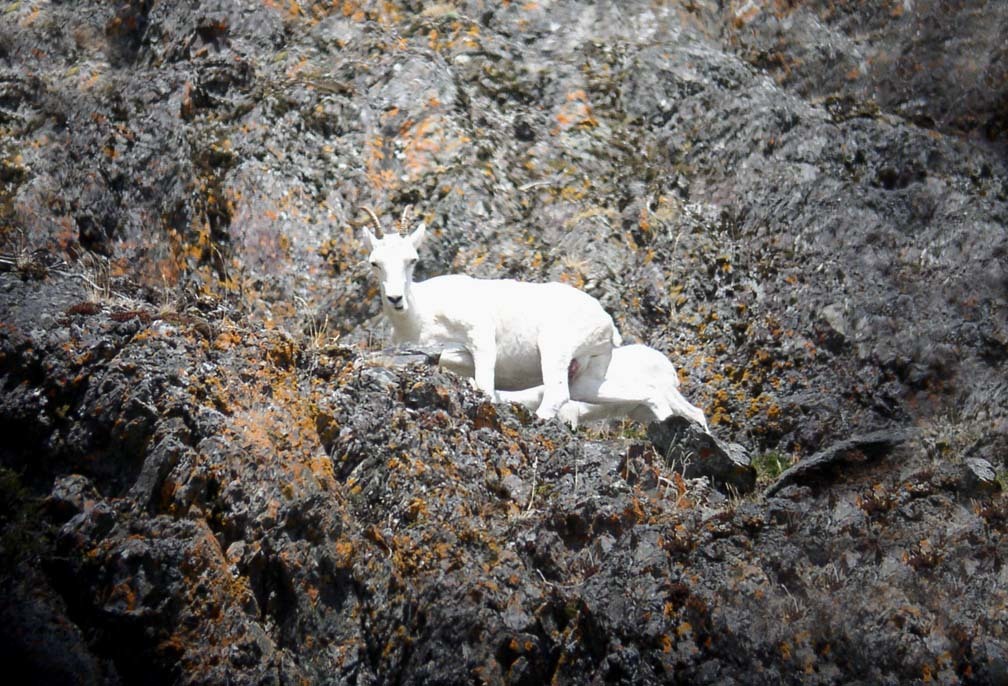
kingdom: Animalia
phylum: Chordata
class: Mammalia
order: Artiodactyla
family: Bovidae
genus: Ovis
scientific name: Ovis dalli
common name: Dall's sheep
